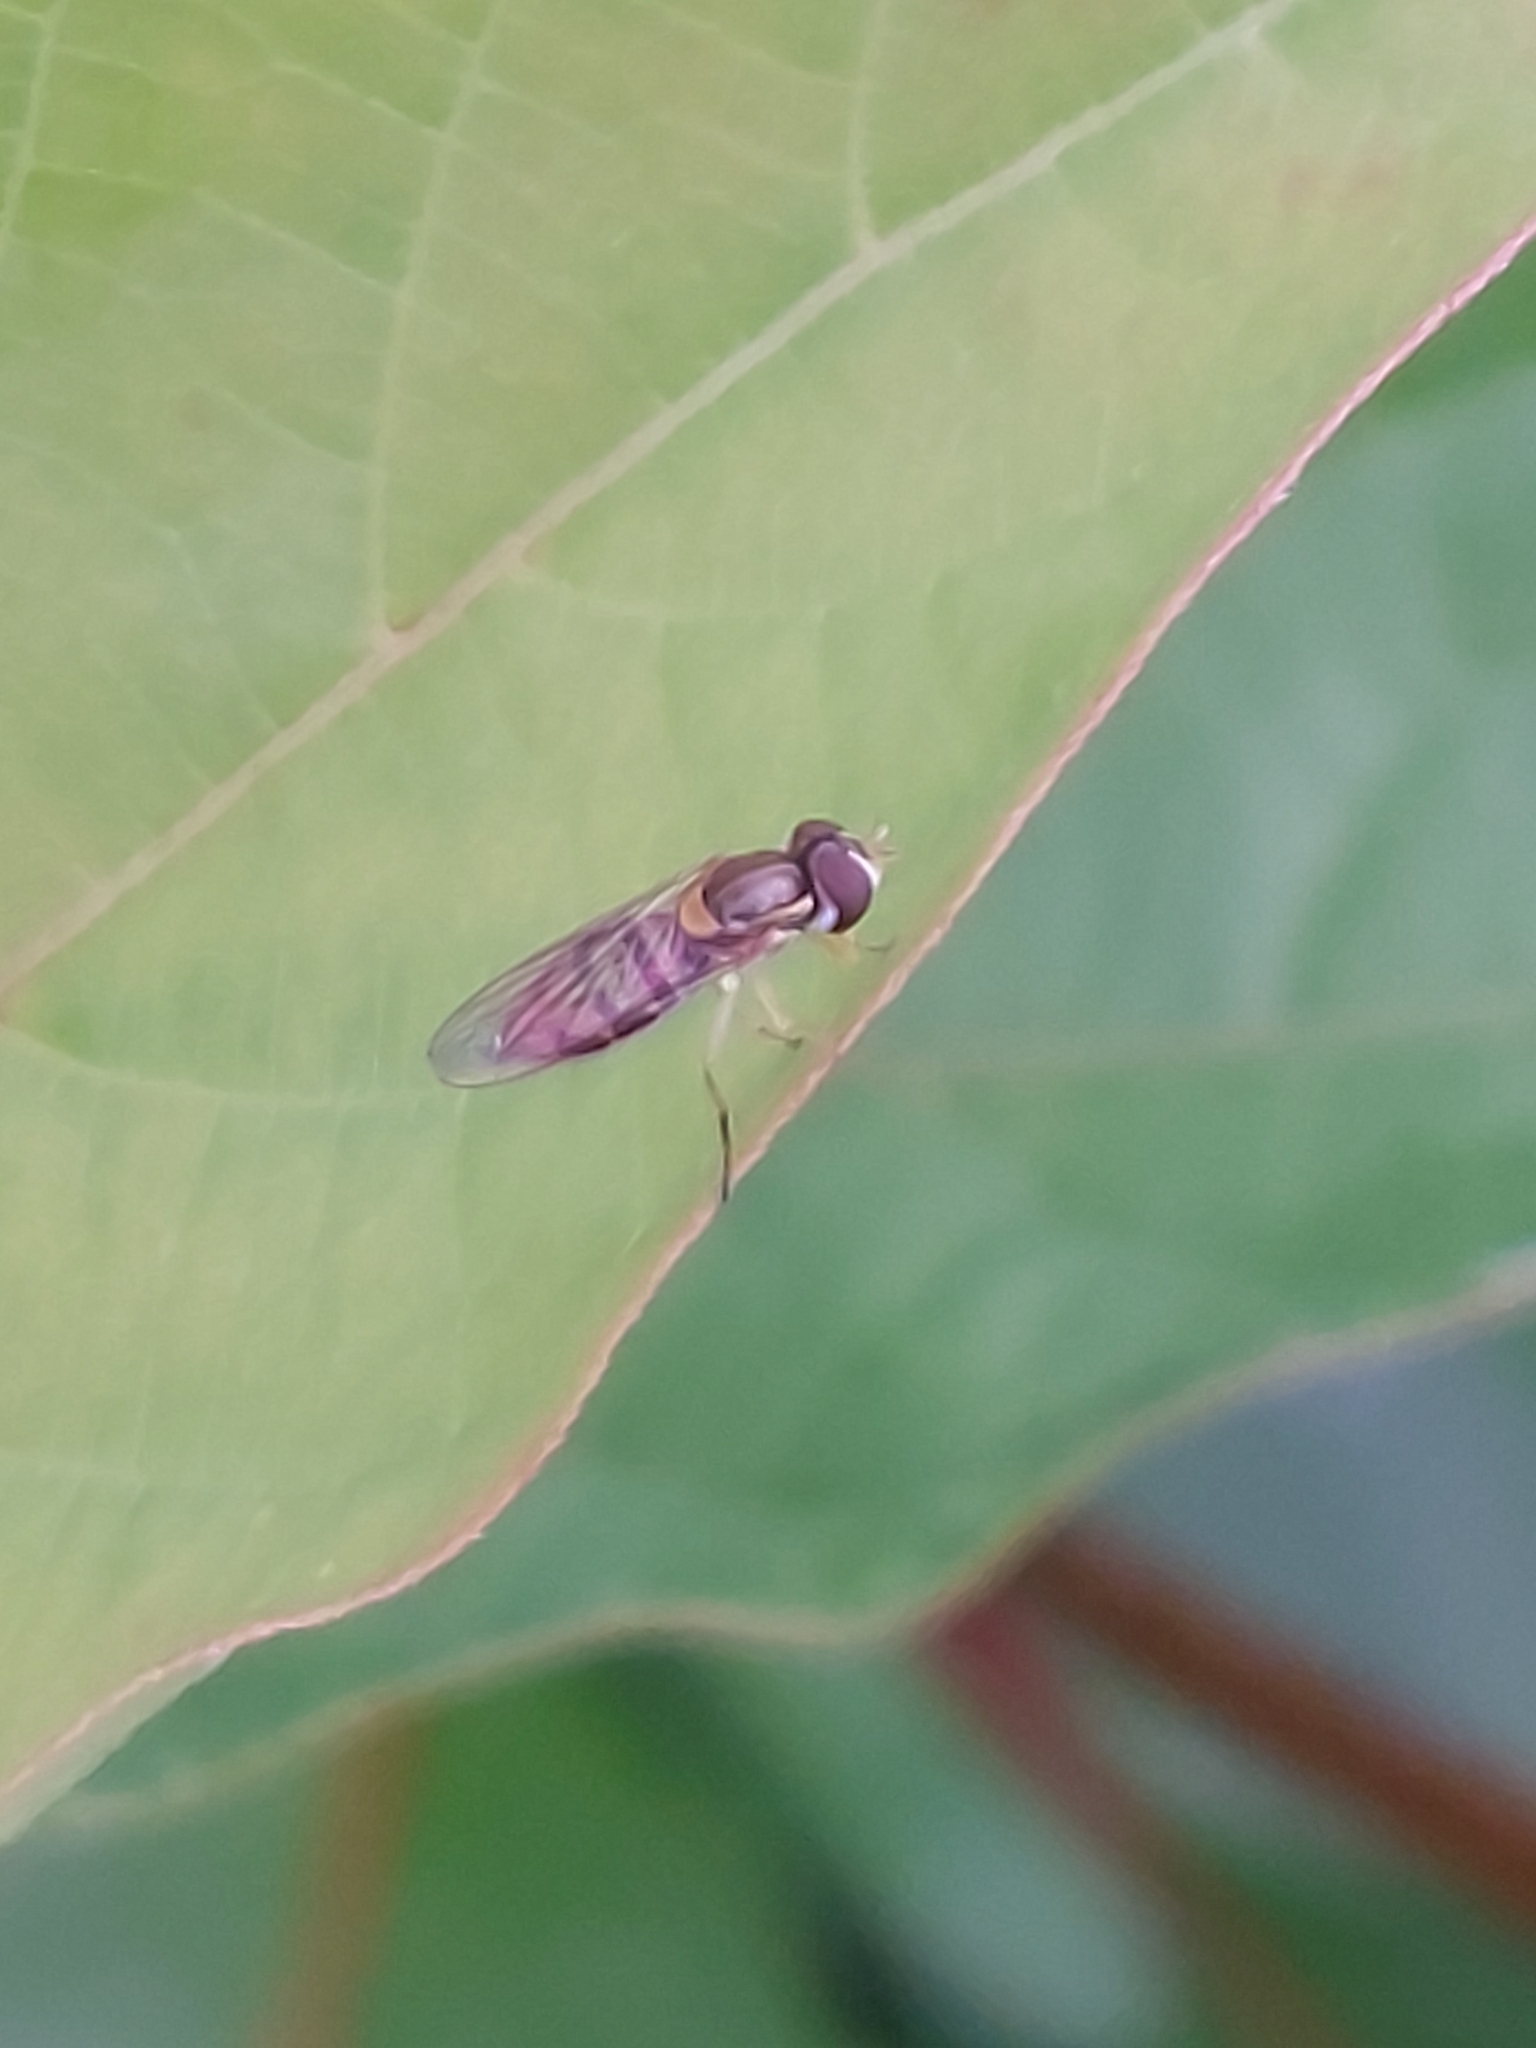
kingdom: Animalia
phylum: Arthropoda
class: Insecta
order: Diptera
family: Syrphidae
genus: Toxomerus
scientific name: Toxomerus marginatus
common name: Syrphid fly
